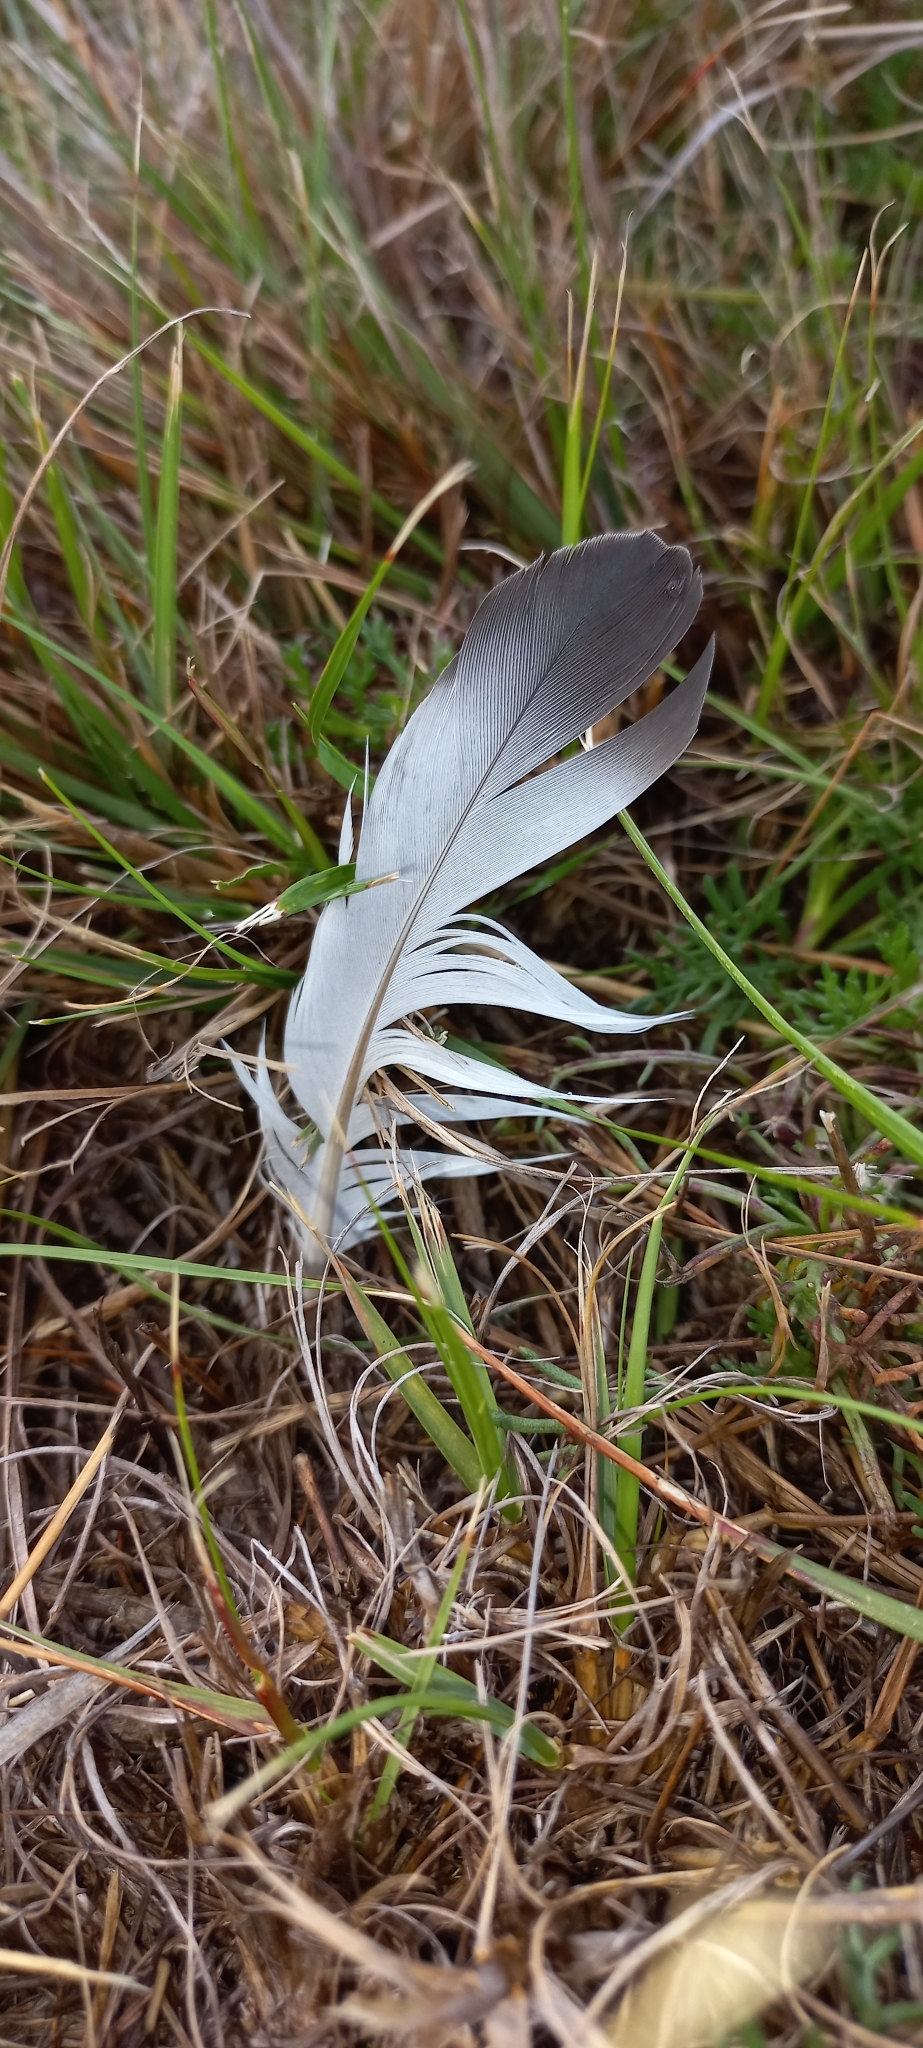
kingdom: Animalia
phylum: Chordata
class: Aves
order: Columbiformes
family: Columbidae
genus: Columba
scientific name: Columba livia
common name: Rock pigeon
